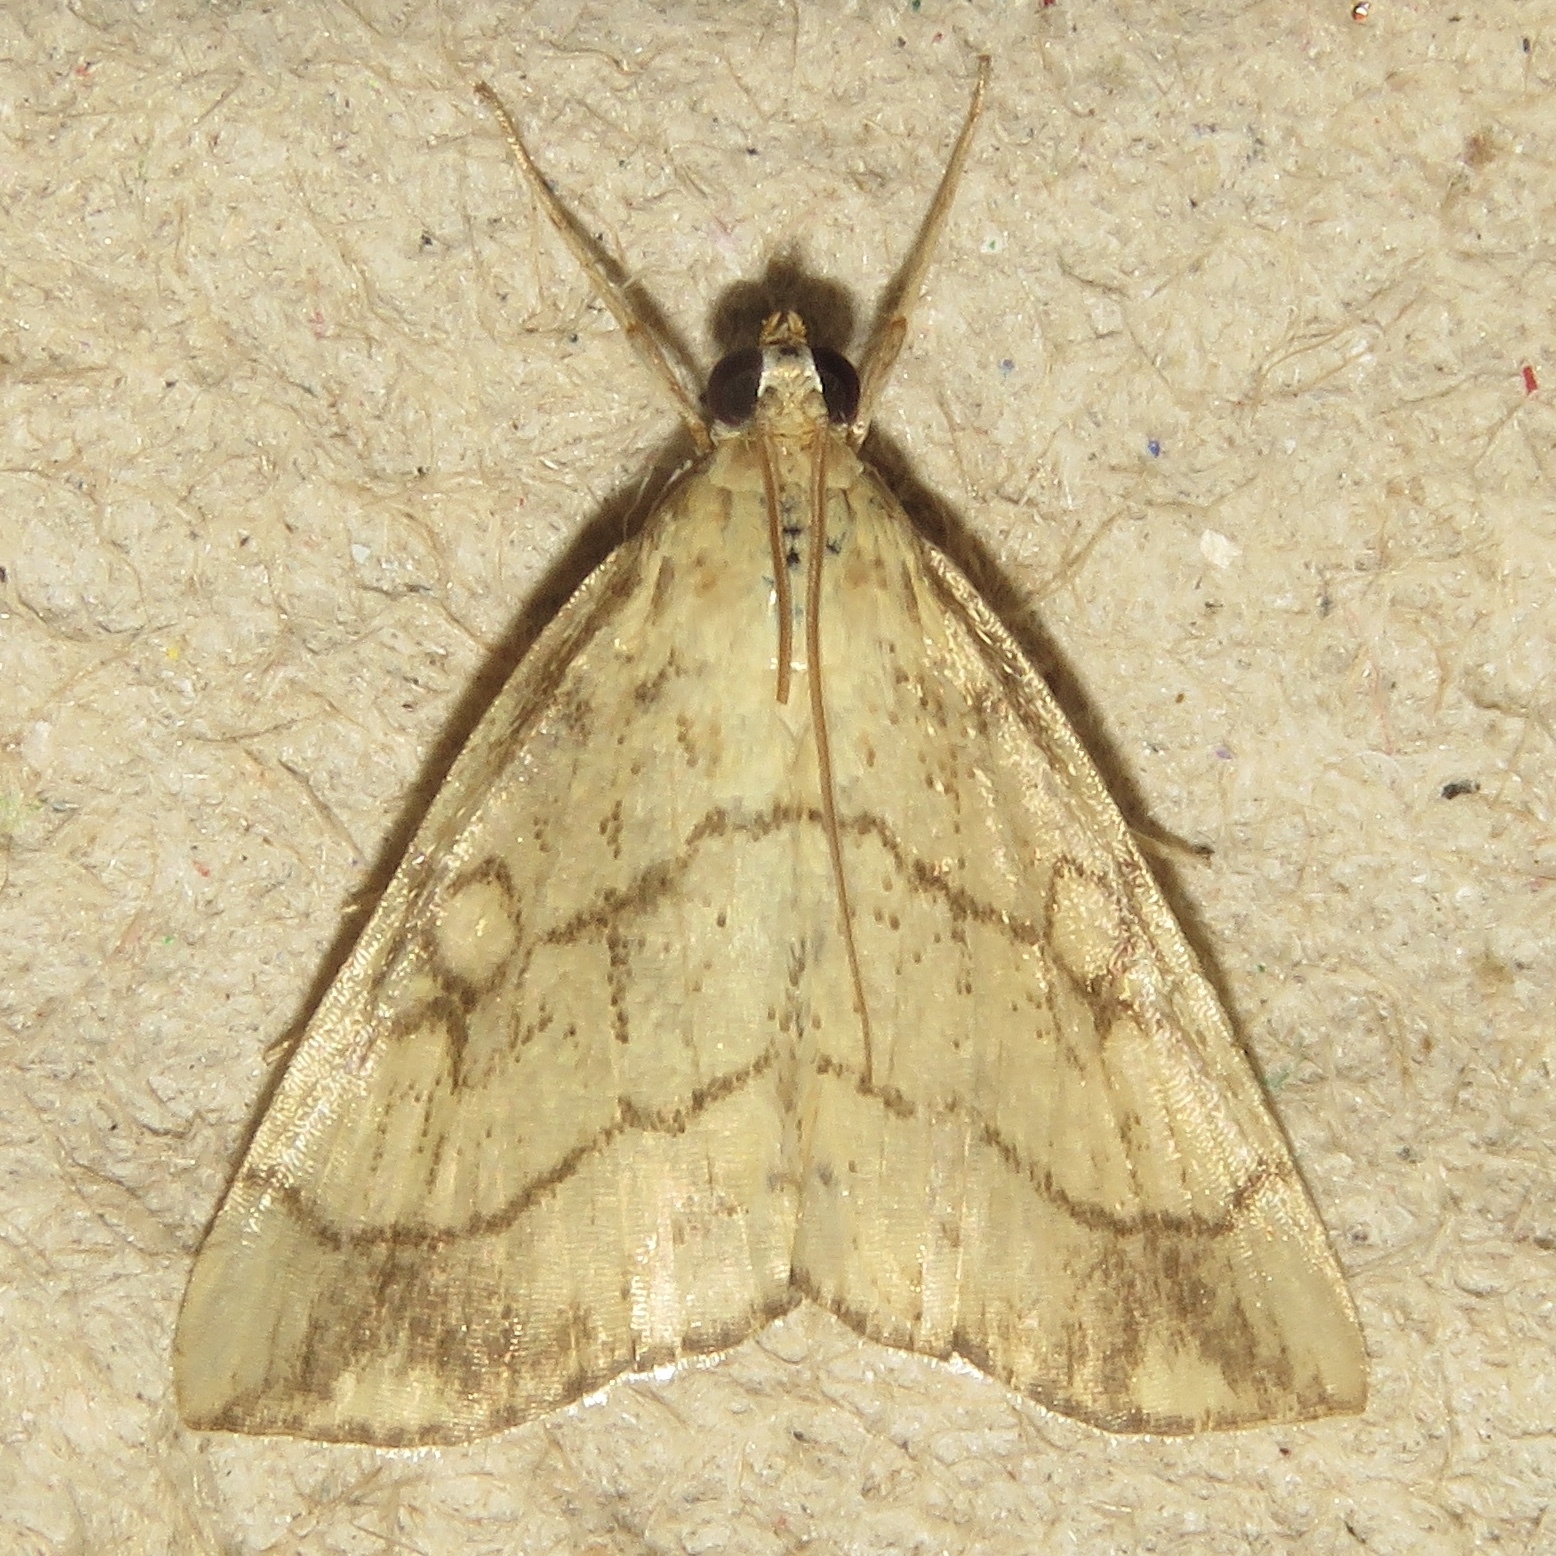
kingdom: Animalia
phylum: Arthropoda
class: Insecta
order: Lepidoptera
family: Crambidae
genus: Evergestis
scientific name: Evergestis pallidata
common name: Chequered pearl
